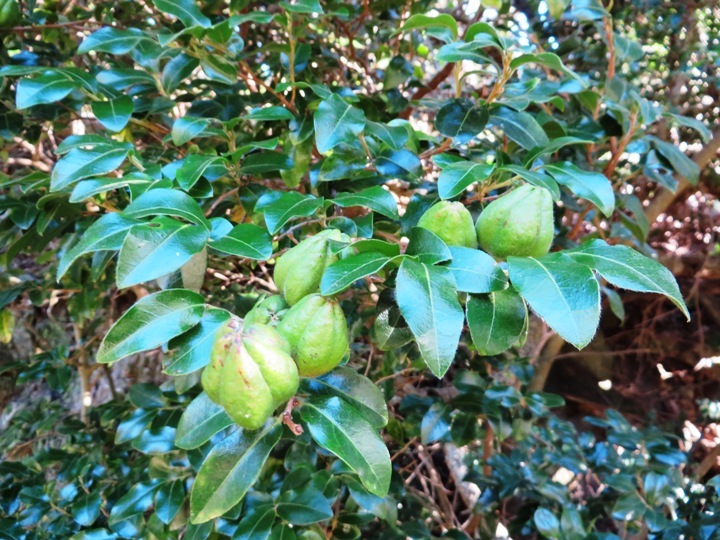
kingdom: Plantae
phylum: Tracheophyta
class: Magnoliopsida
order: Ericales
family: Ebenaceae
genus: Diospyros
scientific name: Diospyros whyteana
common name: Bladder-nut
